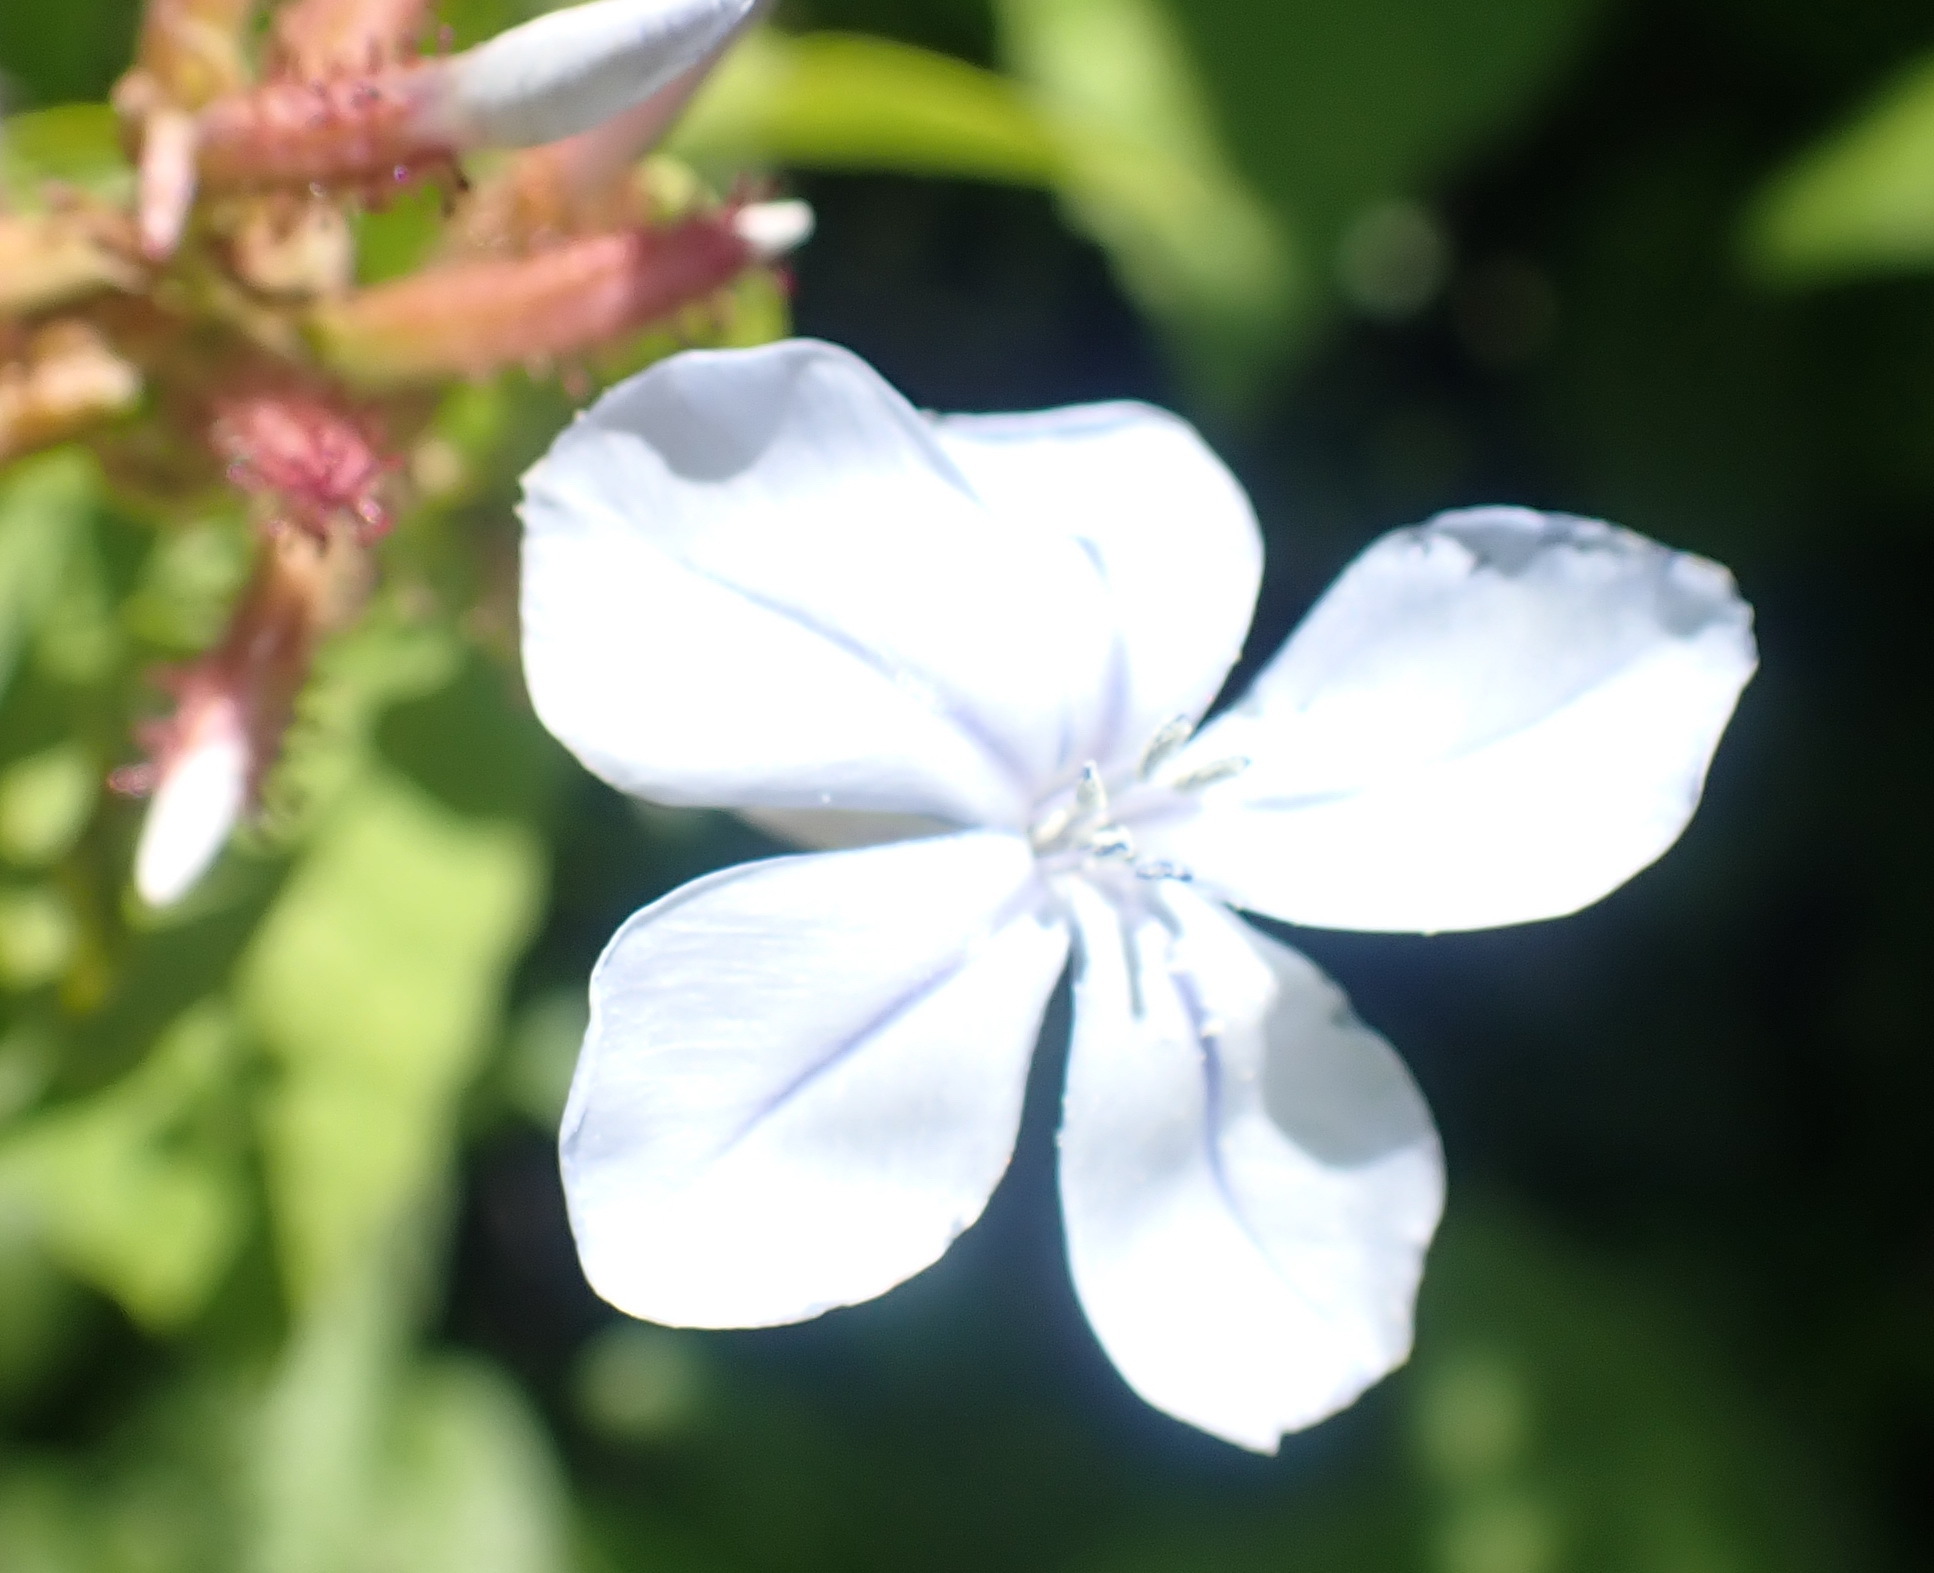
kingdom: Plantae
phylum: Tracheophyta
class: Magnoliopsida
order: Caryophyllales
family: Plumbaginaceae
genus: Plumbago
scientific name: Plumbago auriculata
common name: Cape leadwort
